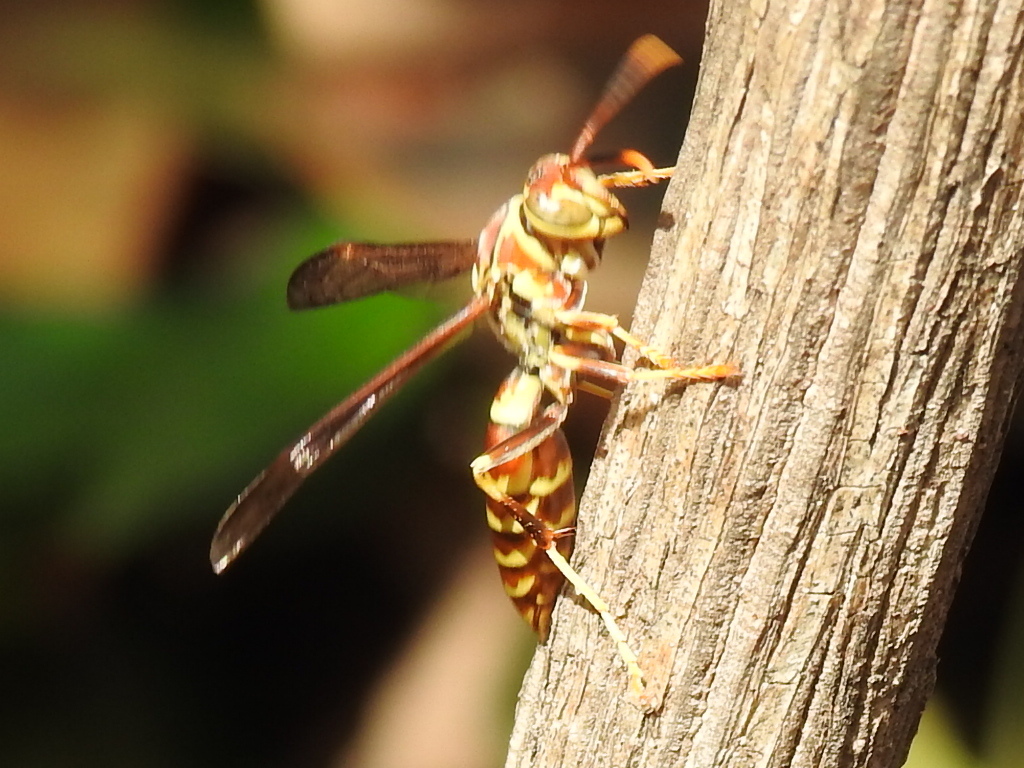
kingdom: Animalia
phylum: Arthropoda
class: Insecta
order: Hymenoptera
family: Eumenidae
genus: Polistes
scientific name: Polistes exclamans
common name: Paper wasp
